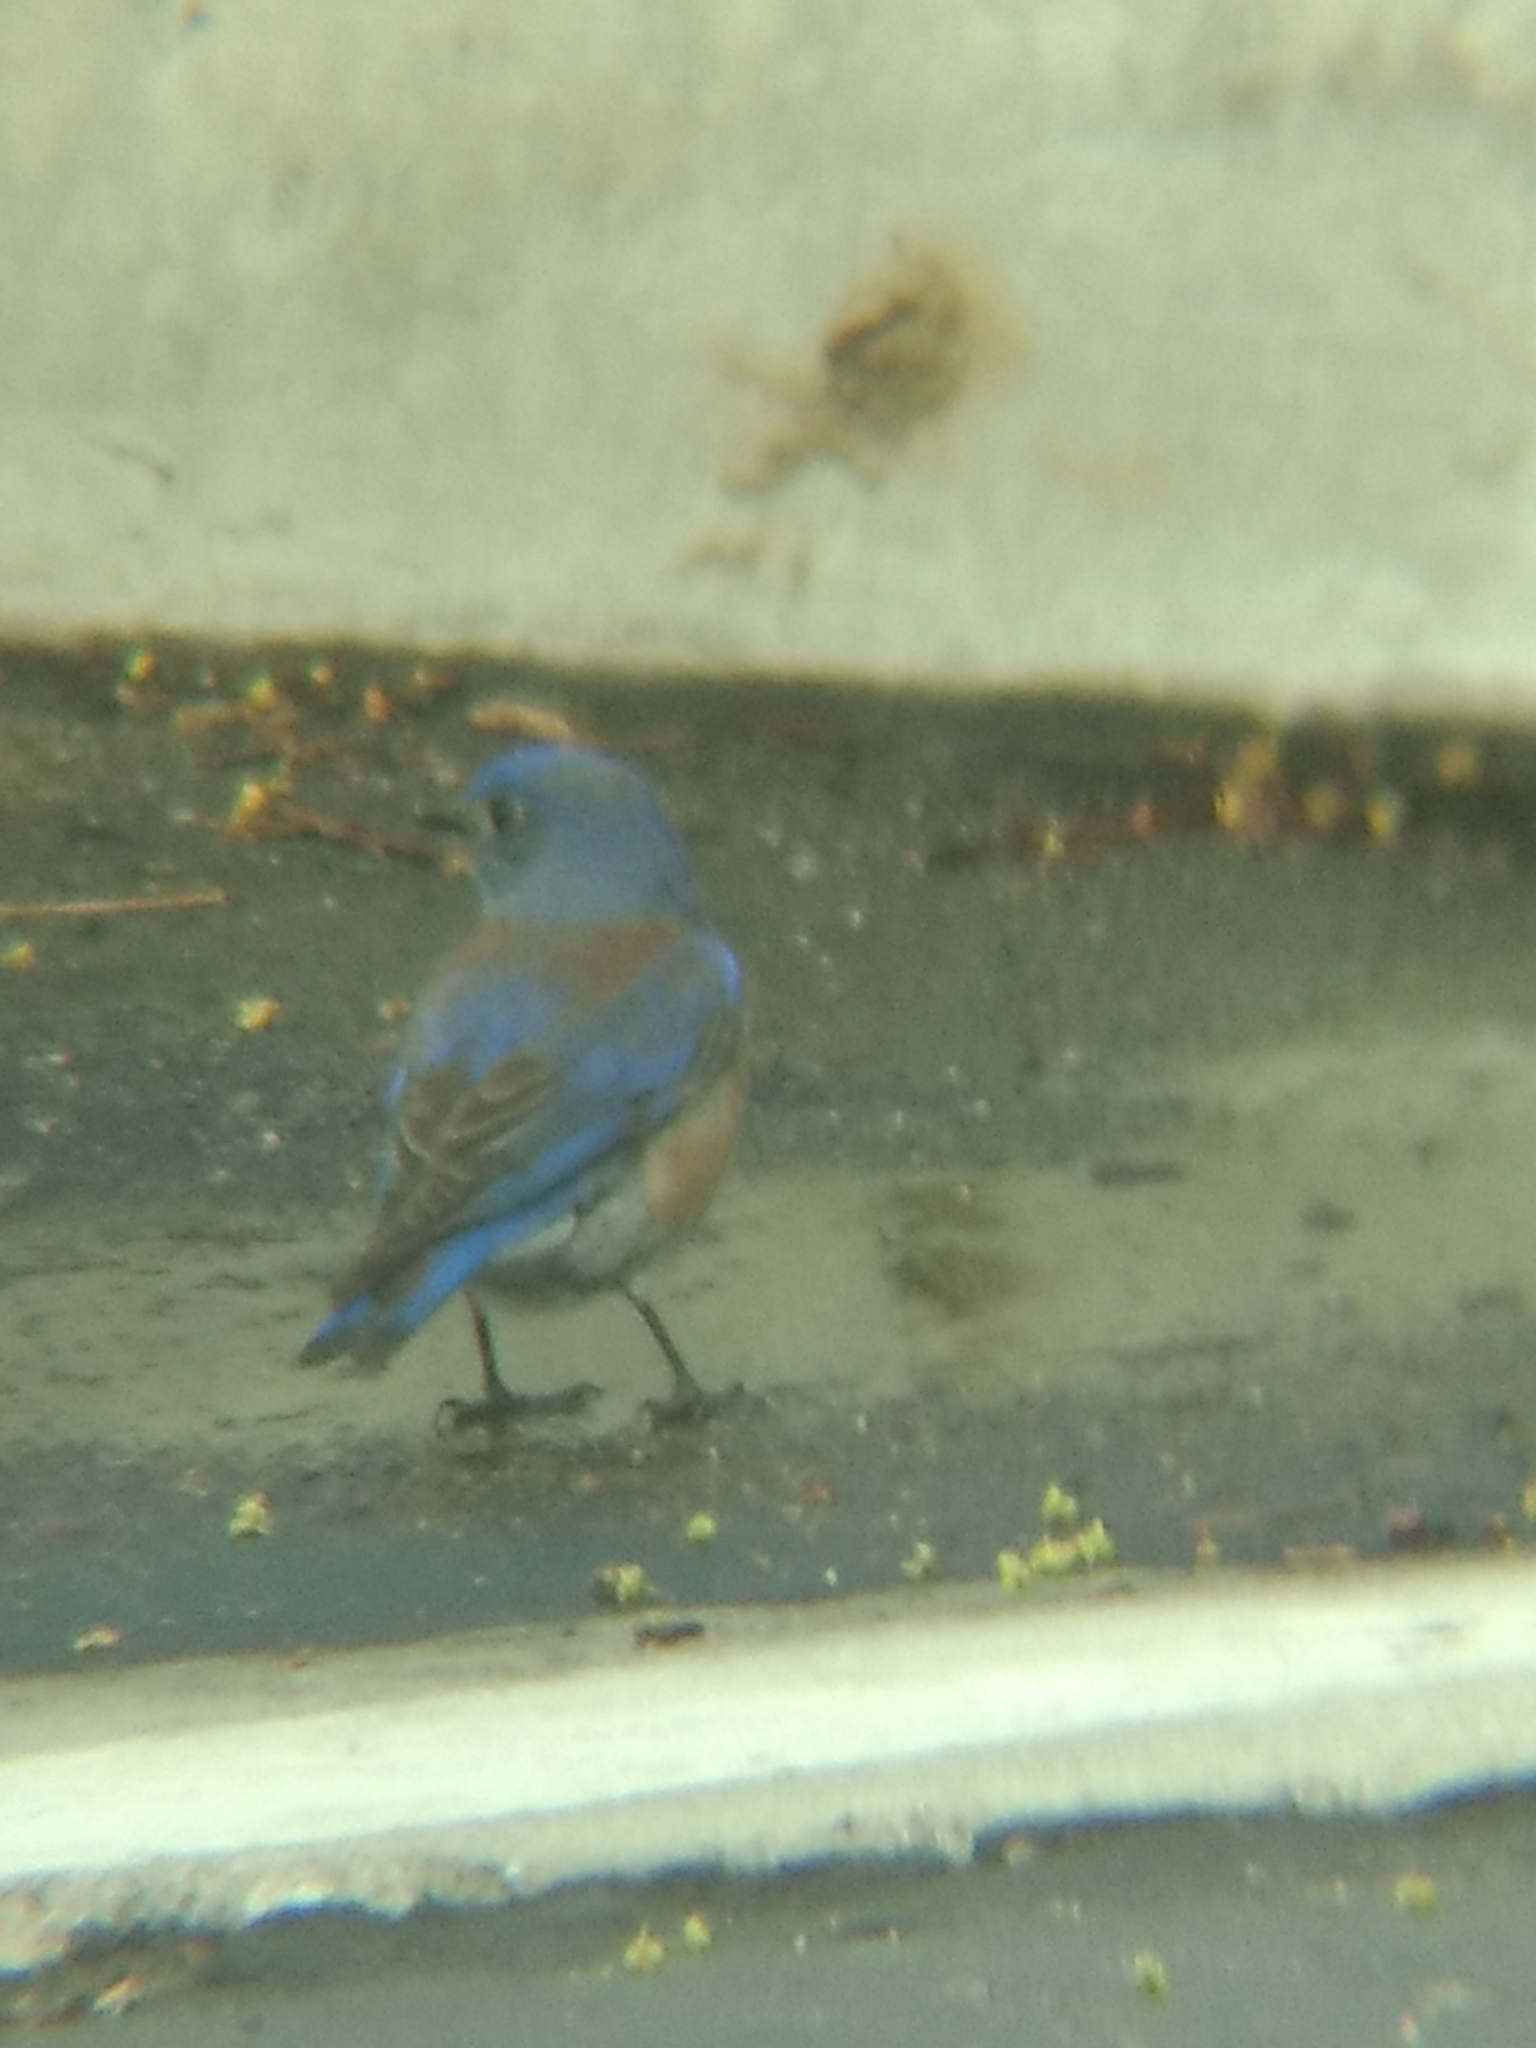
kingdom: Animalia
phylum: Chordata
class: Aves
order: Passeriformes
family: Turdidae
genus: Sialia
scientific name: Sialia mexicana
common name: Western bluebird
